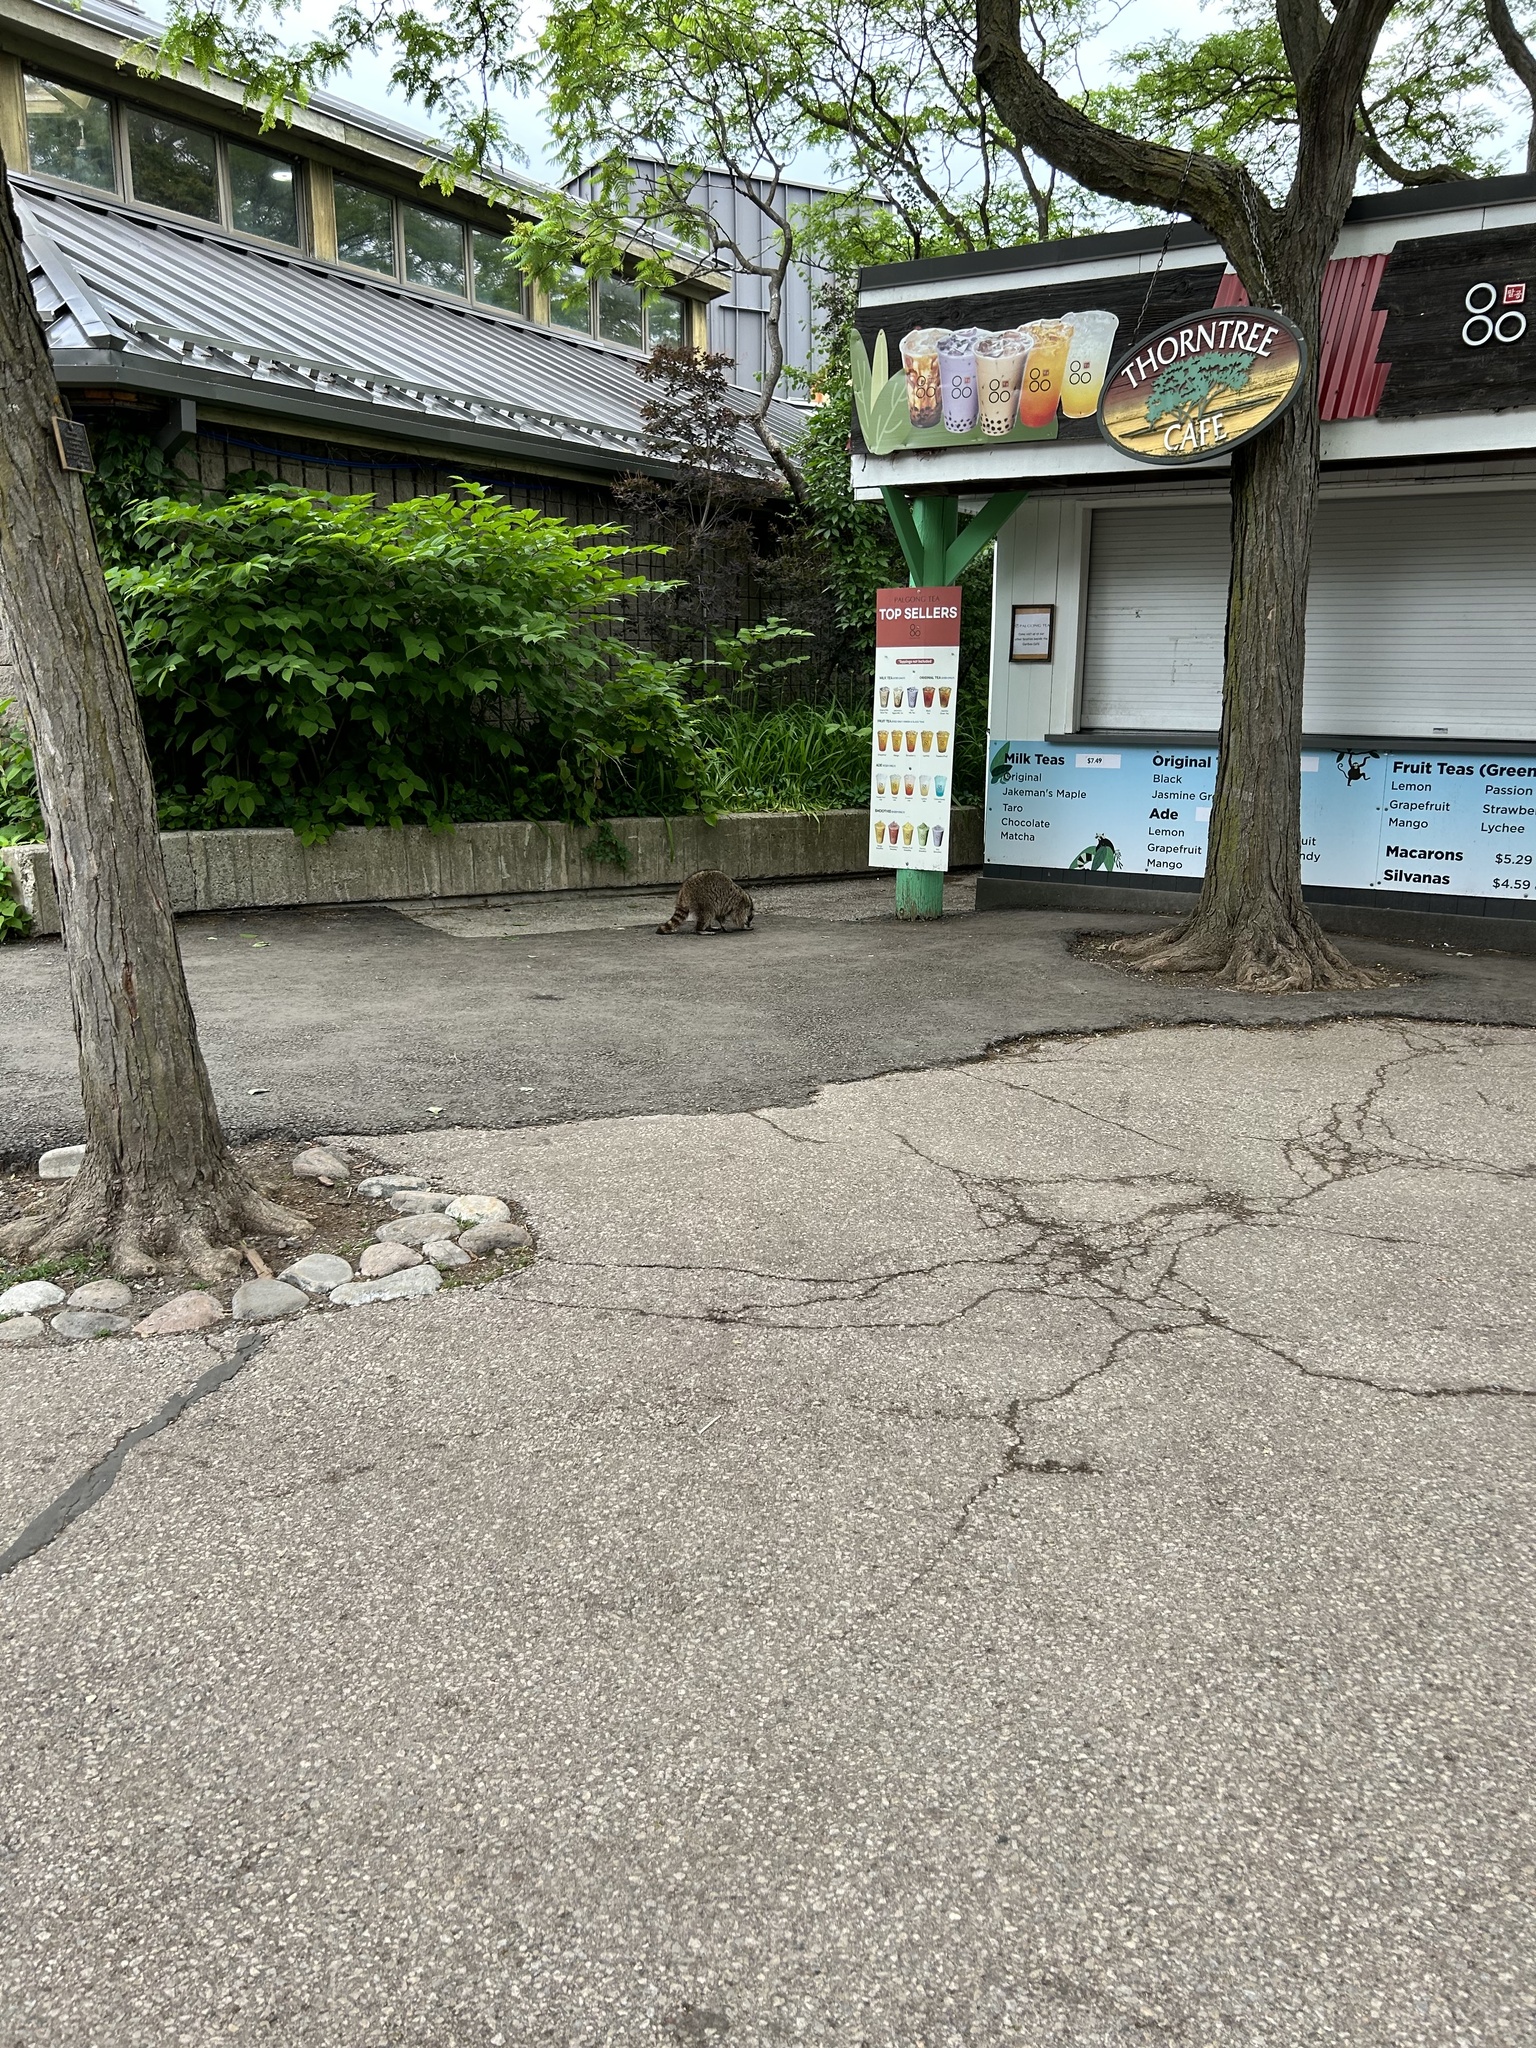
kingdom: Animalia
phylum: Chordata
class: Mammalia
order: Carnivora
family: Procyonidae
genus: Procyon
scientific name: Procyon lotor
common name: Raccoon
